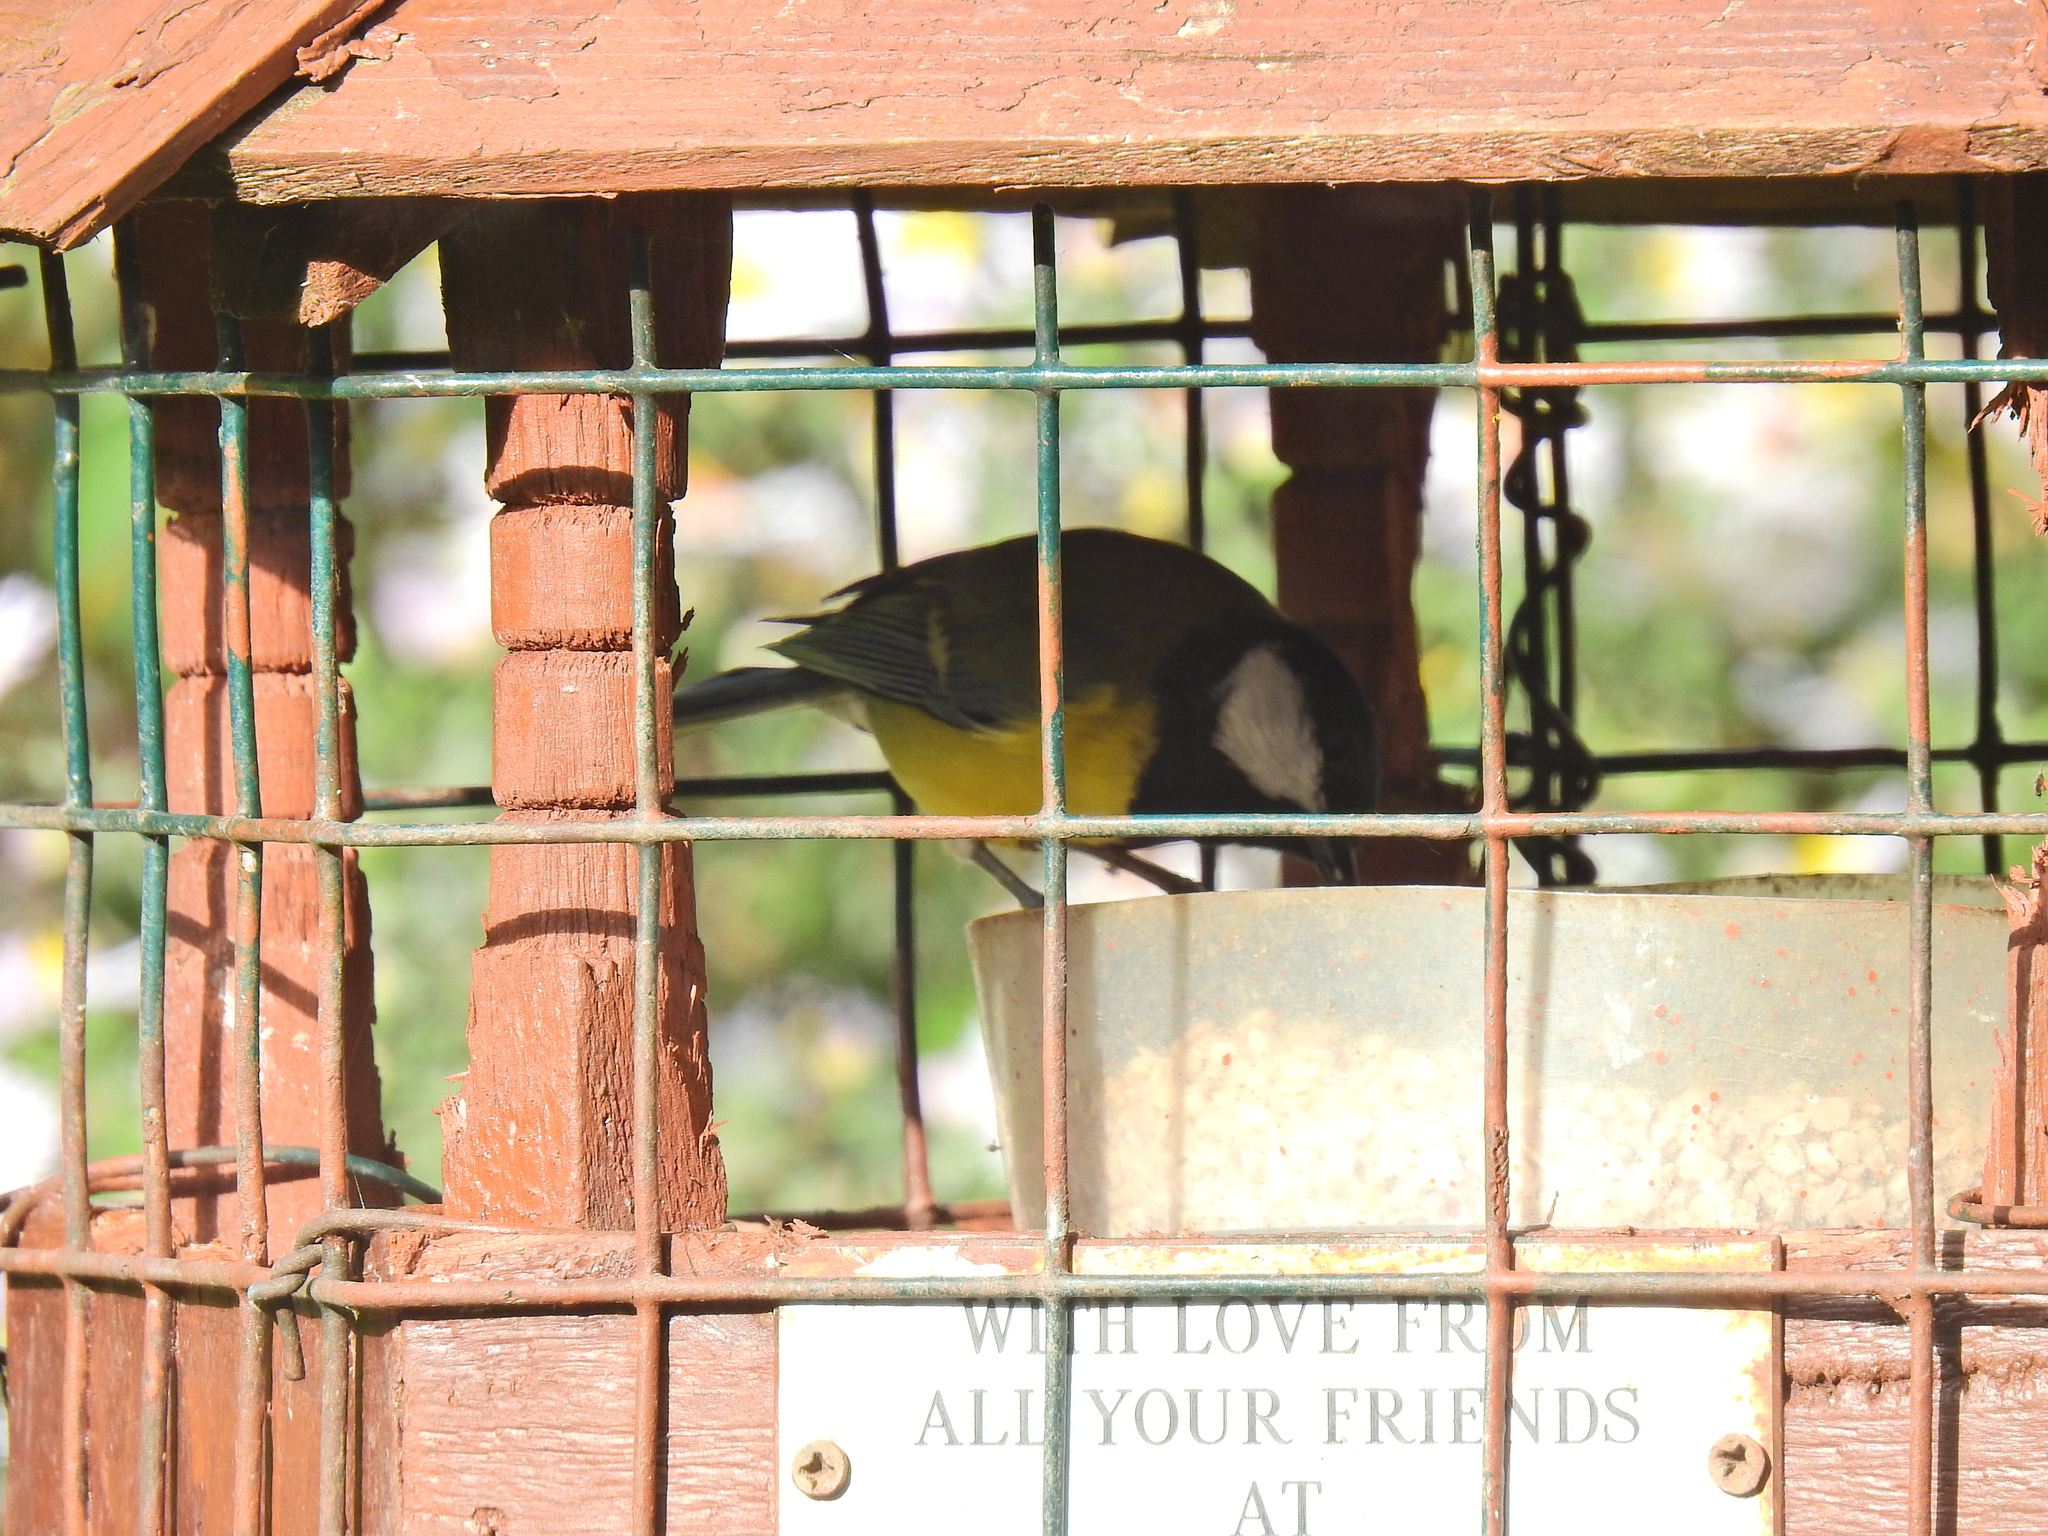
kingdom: Animalia
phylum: Chordata
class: Aves
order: Passeriformes
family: Paridae
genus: Parus
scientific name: Parus major
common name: Great tit
